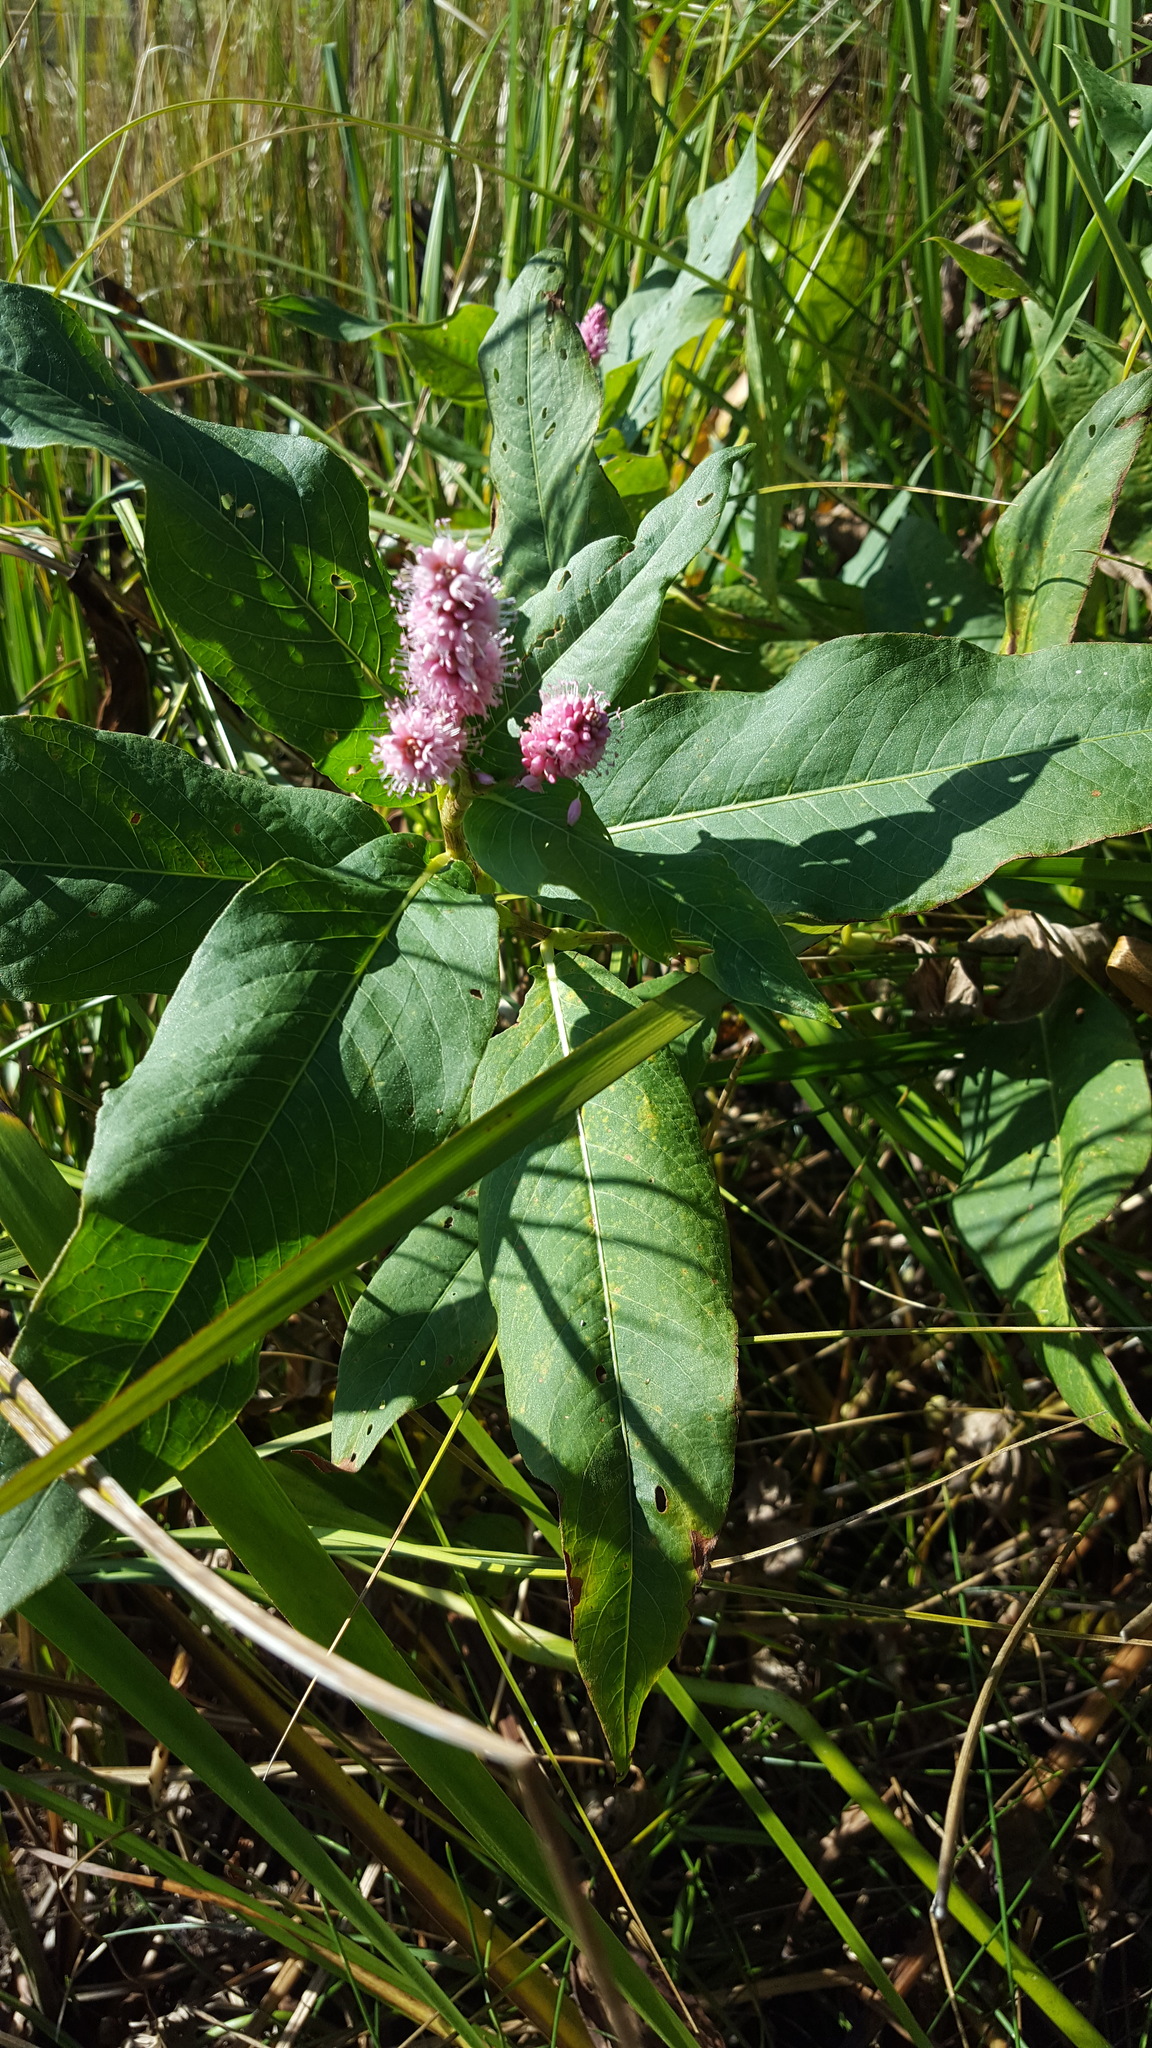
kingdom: Plantae
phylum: Tracheophyta
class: Magnoliopsida
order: Caryophyllales
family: Polygonaceae
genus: Persicaria
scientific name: Persicaria amphibia
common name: Amphibious bistort
